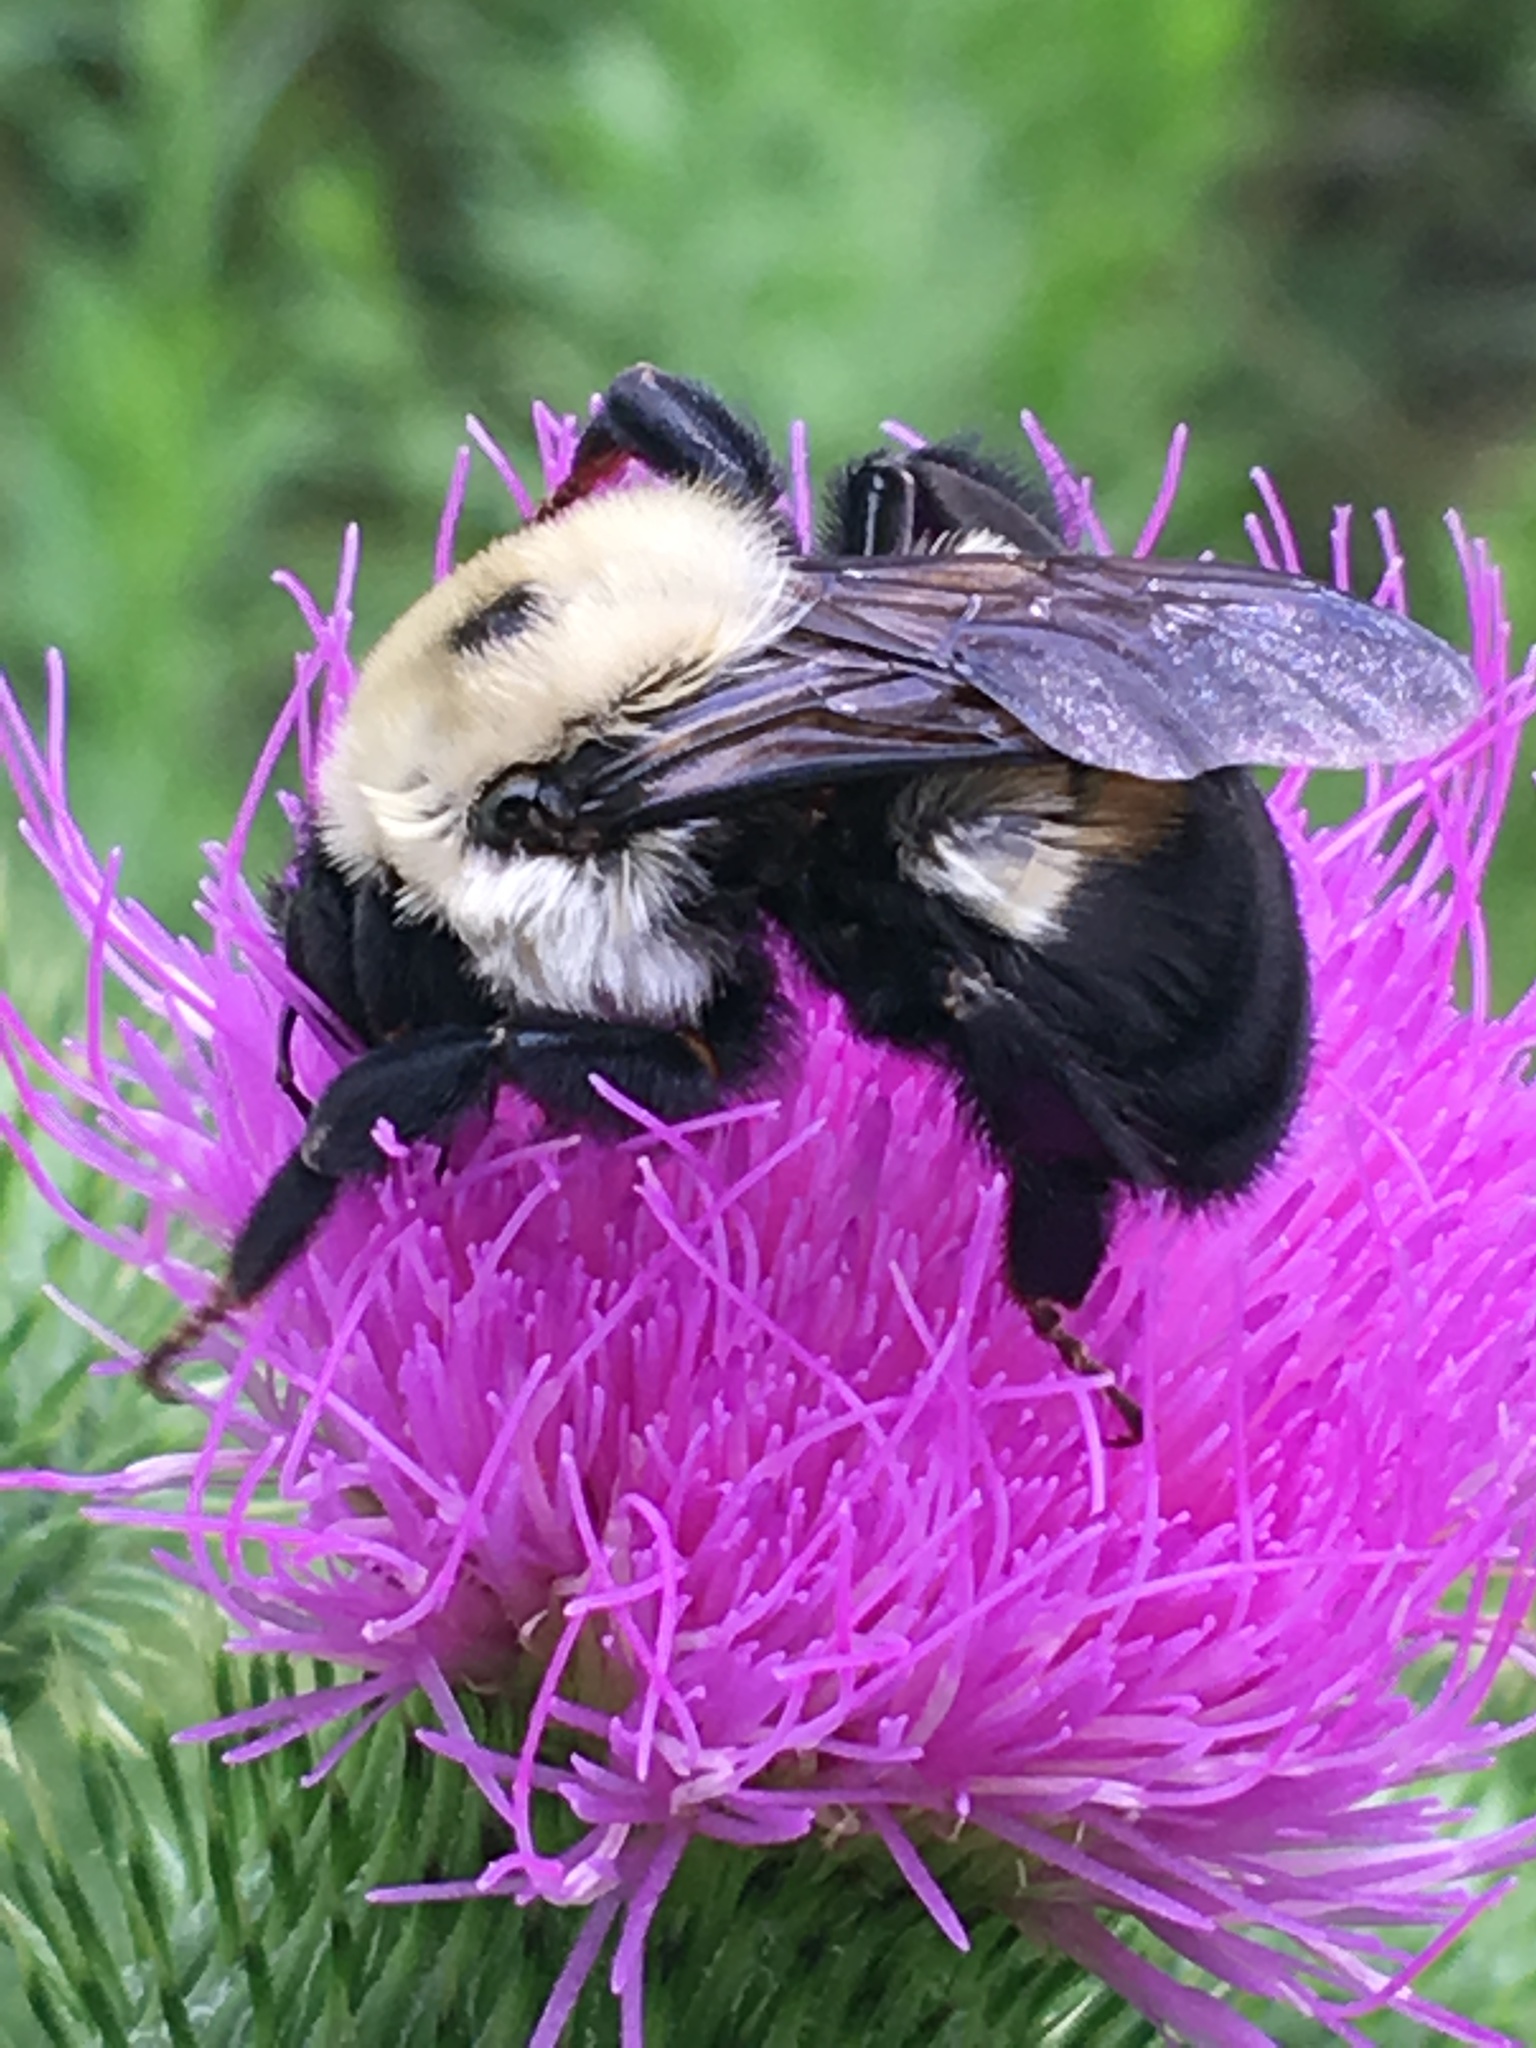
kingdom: Animalia
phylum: Arthropoda
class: Insecta
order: Hymenoptera
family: Apidae
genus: Bombus
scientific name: Bombus griseocollis
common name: Brown-belted bumble bee
